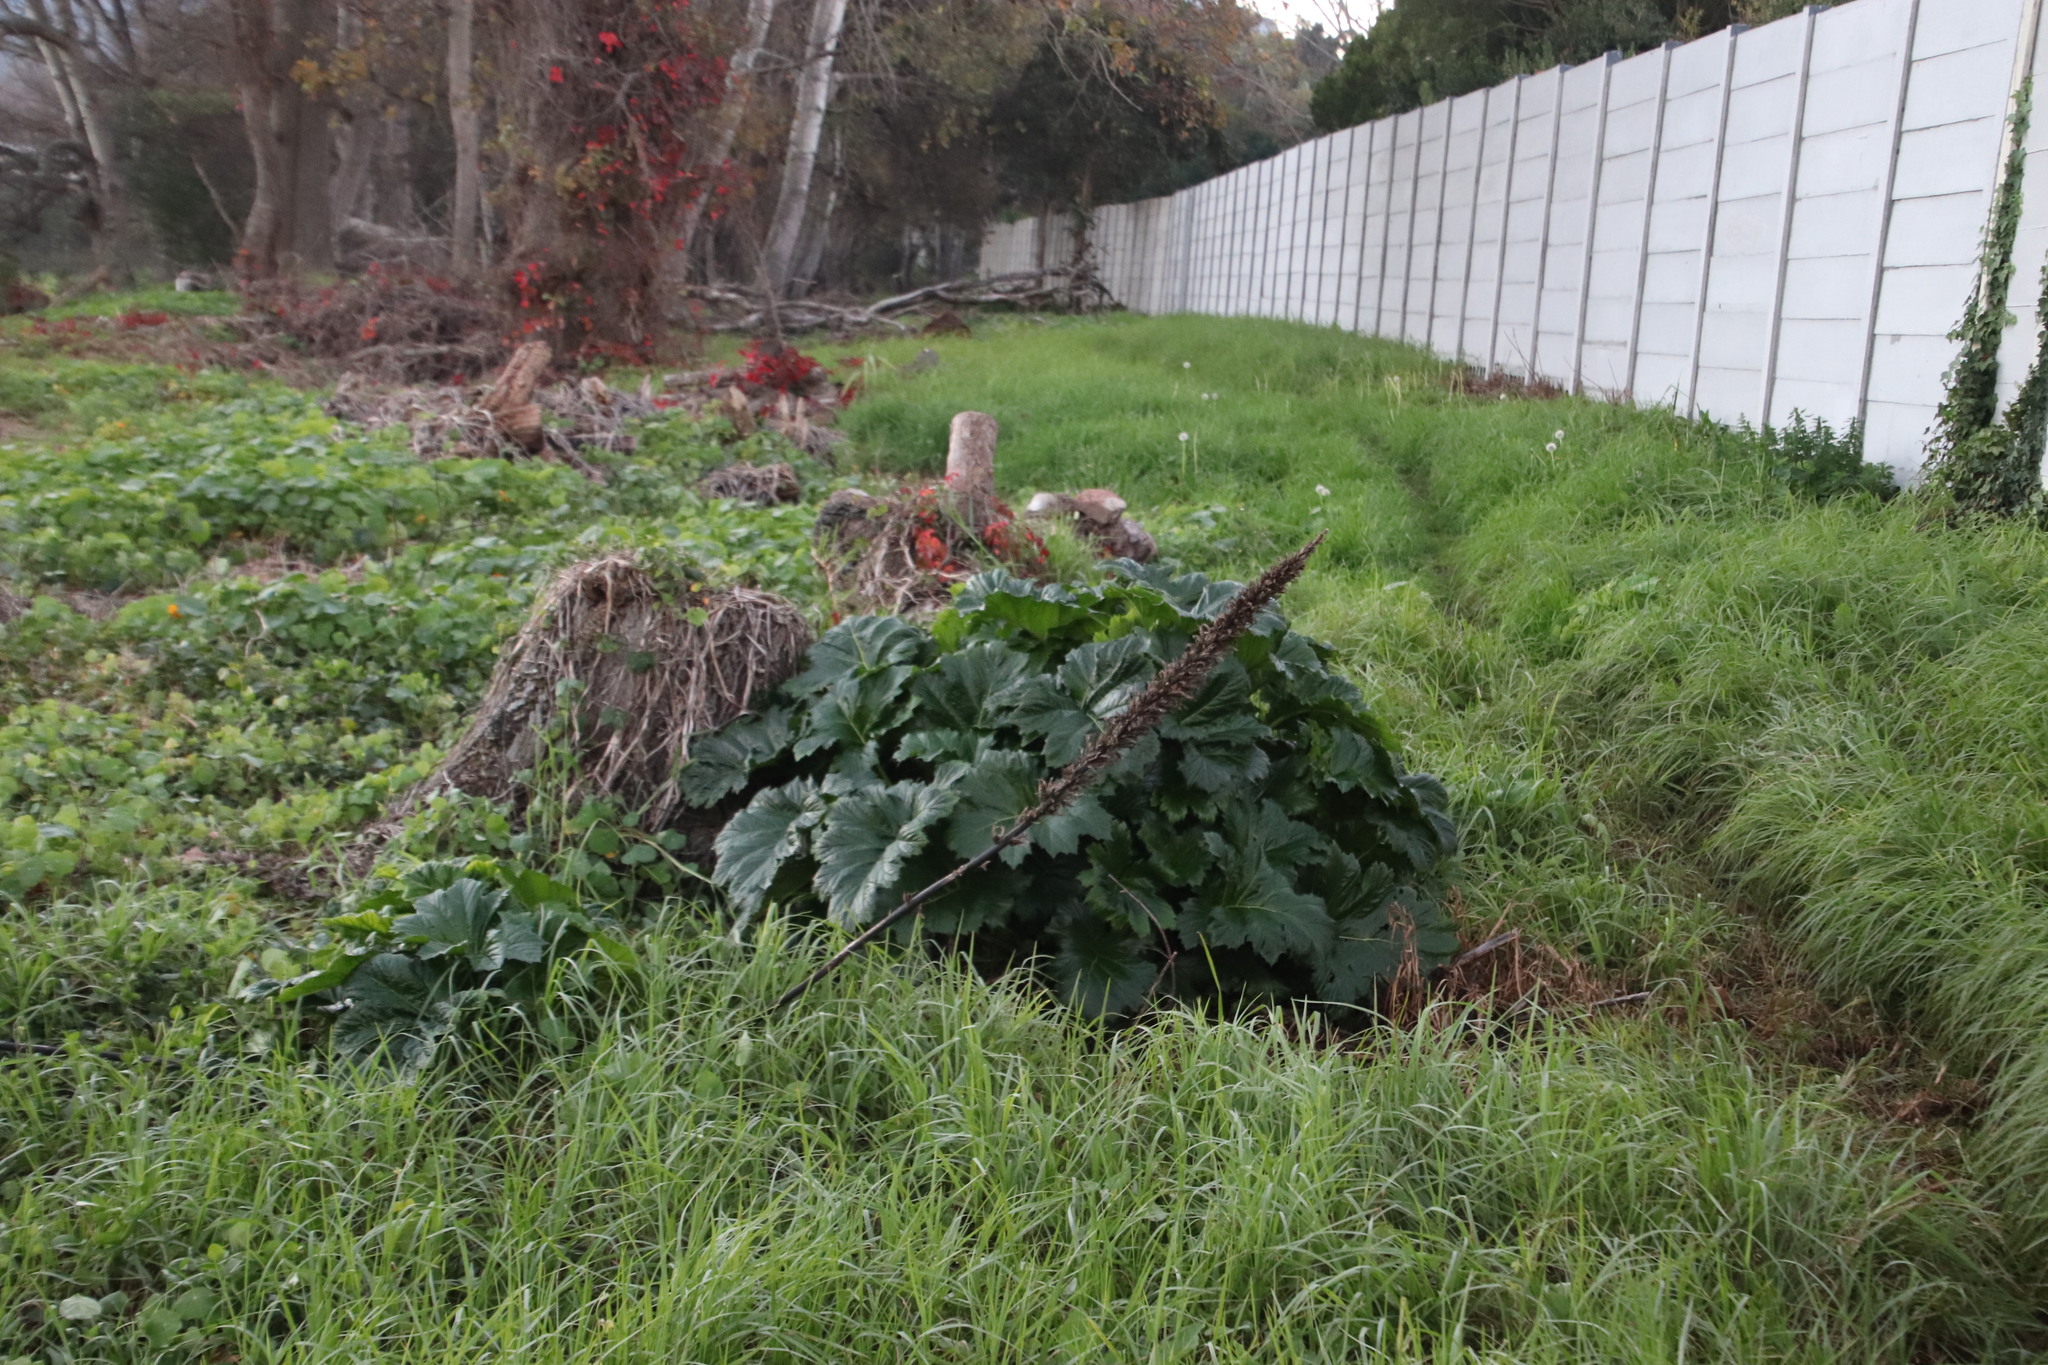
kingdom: Plantae
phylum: Tracheophyta
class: Magnoliopsida
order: Lamiales
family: Acanthaceae
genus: Acanthus
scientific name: Acanthus mollis
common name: Bear's-breech
